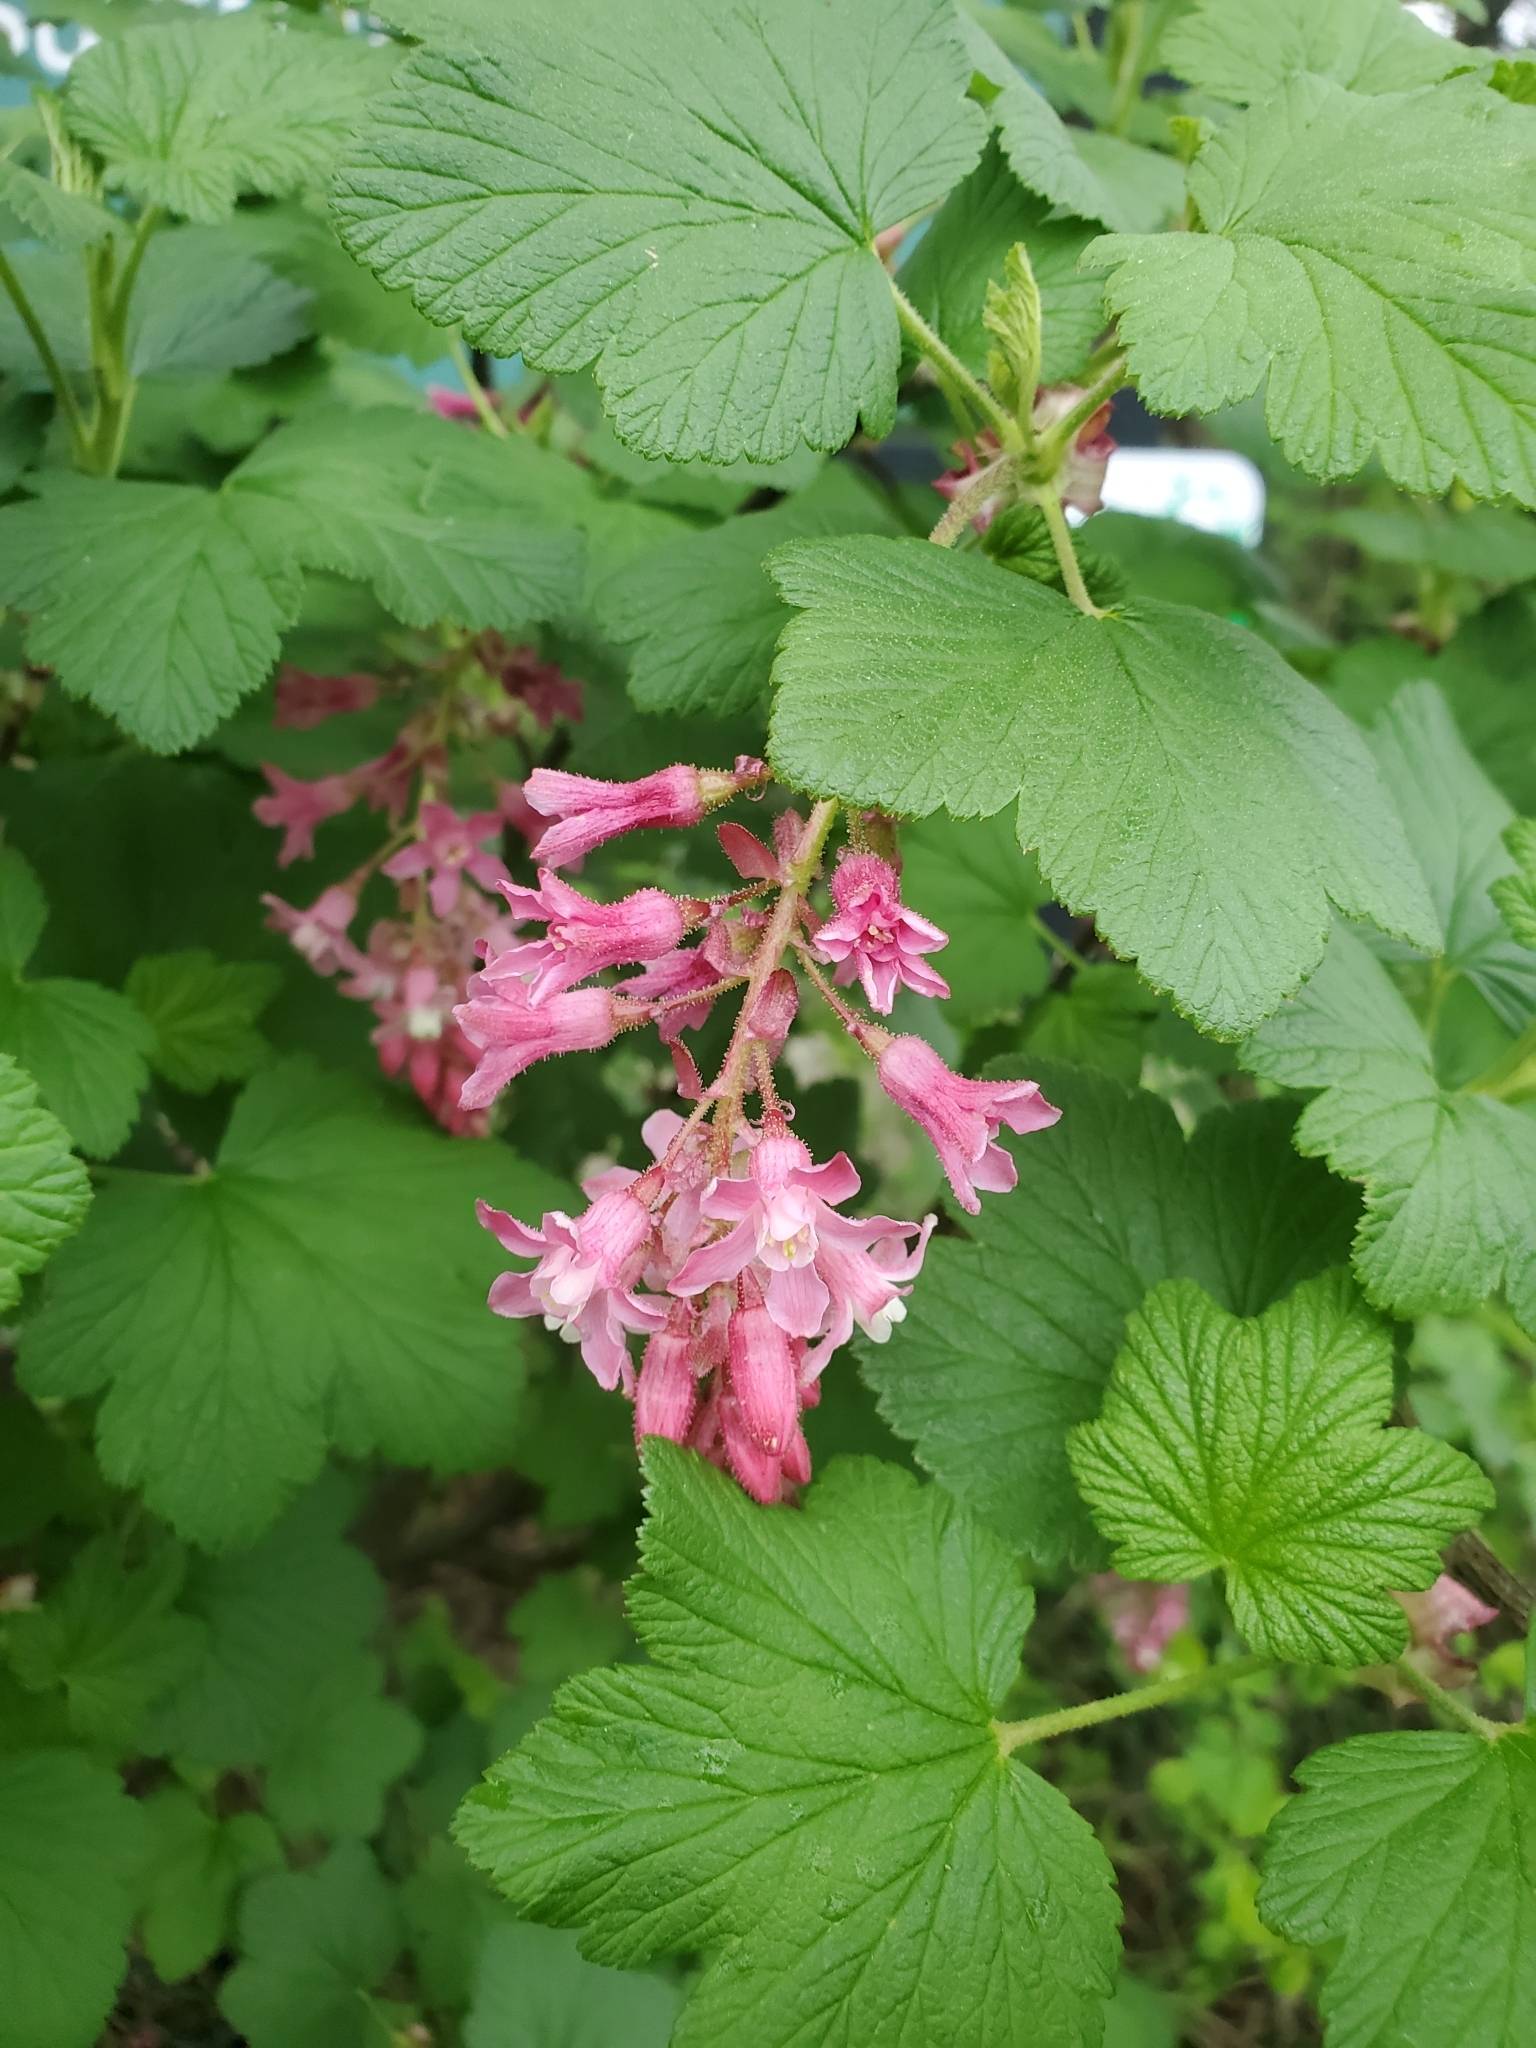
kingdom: Plantae
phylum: Tracheophyta
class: Magnoliopsida
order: Saxifragales
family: Grossulariaceae
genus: Ribes
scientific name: Ribes sanguineum
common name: Flowering currant
